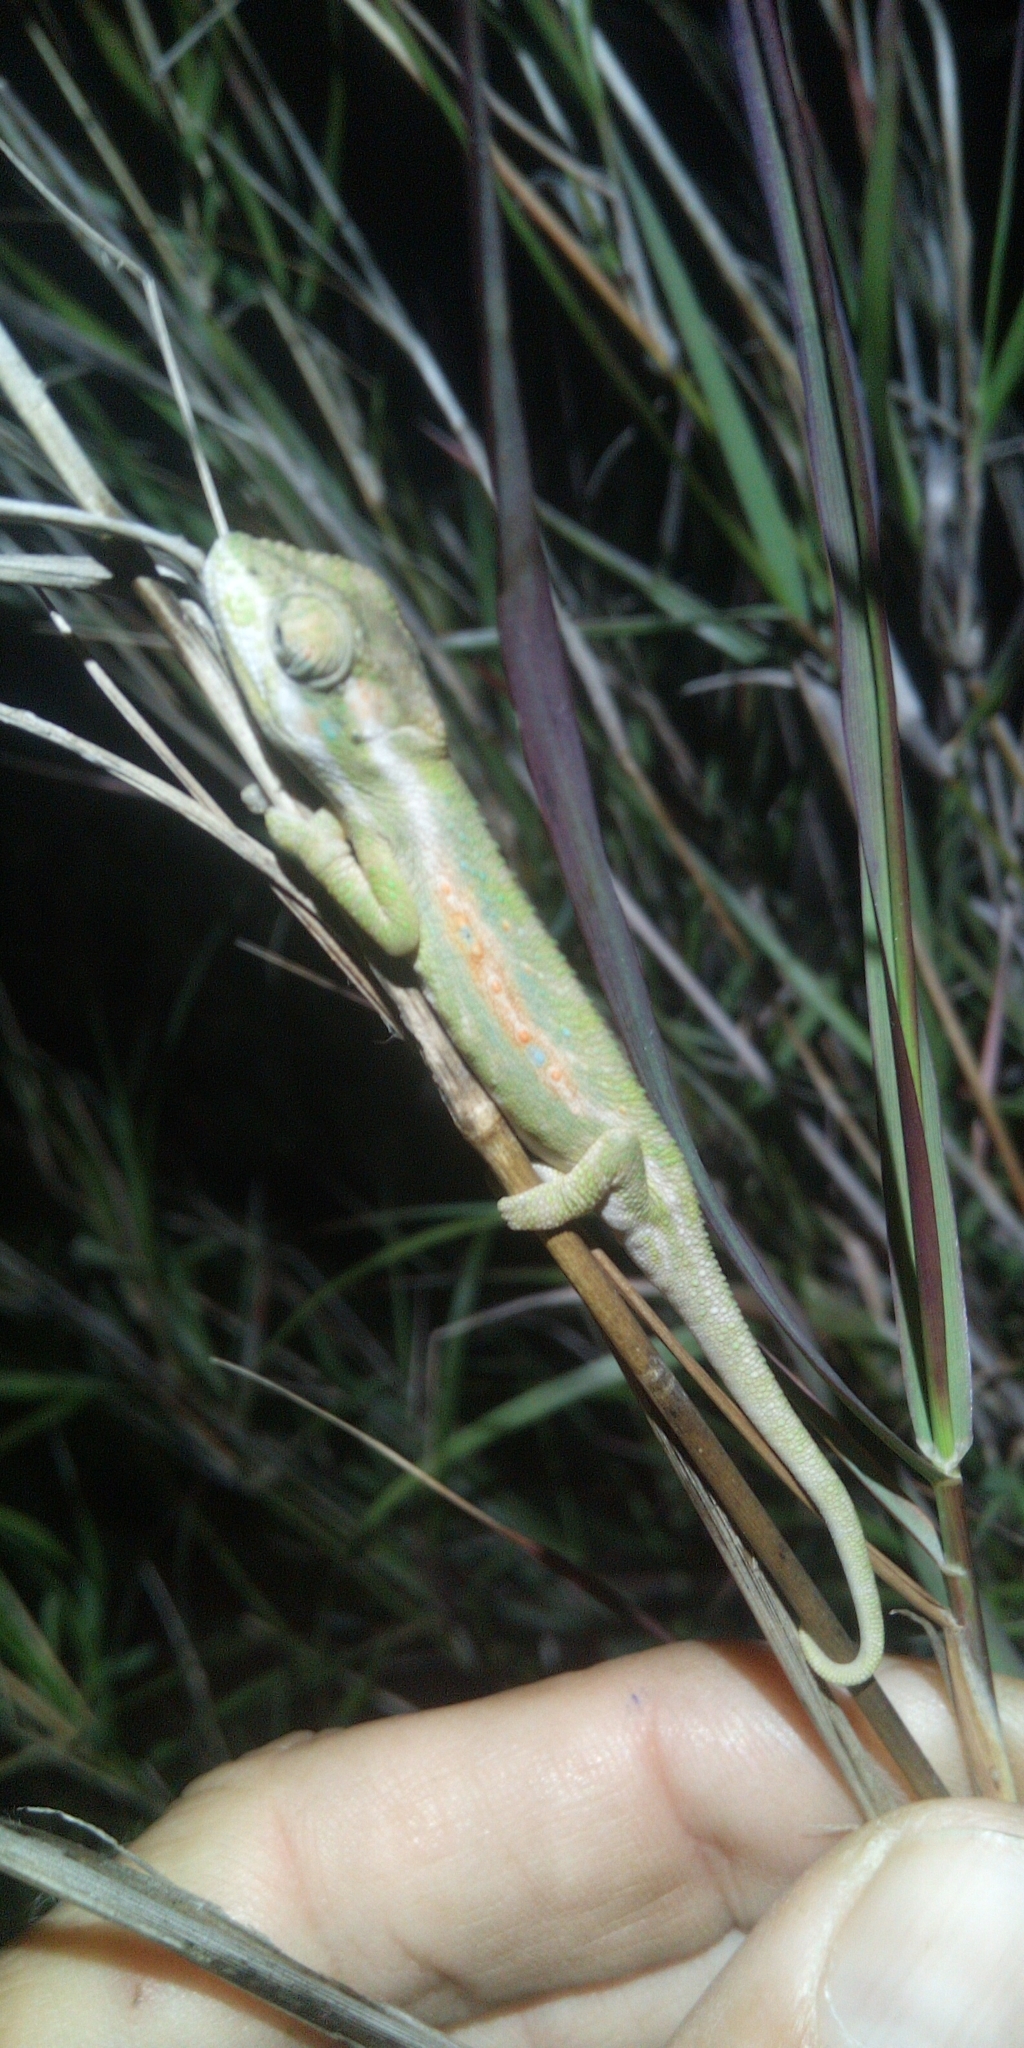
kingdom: Animalia
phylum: Chordata
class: Squamata
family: Chamaeleonidae
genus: Bradypodion
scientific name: Bradypodion pumilum
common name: Cape dwarf chameleon
